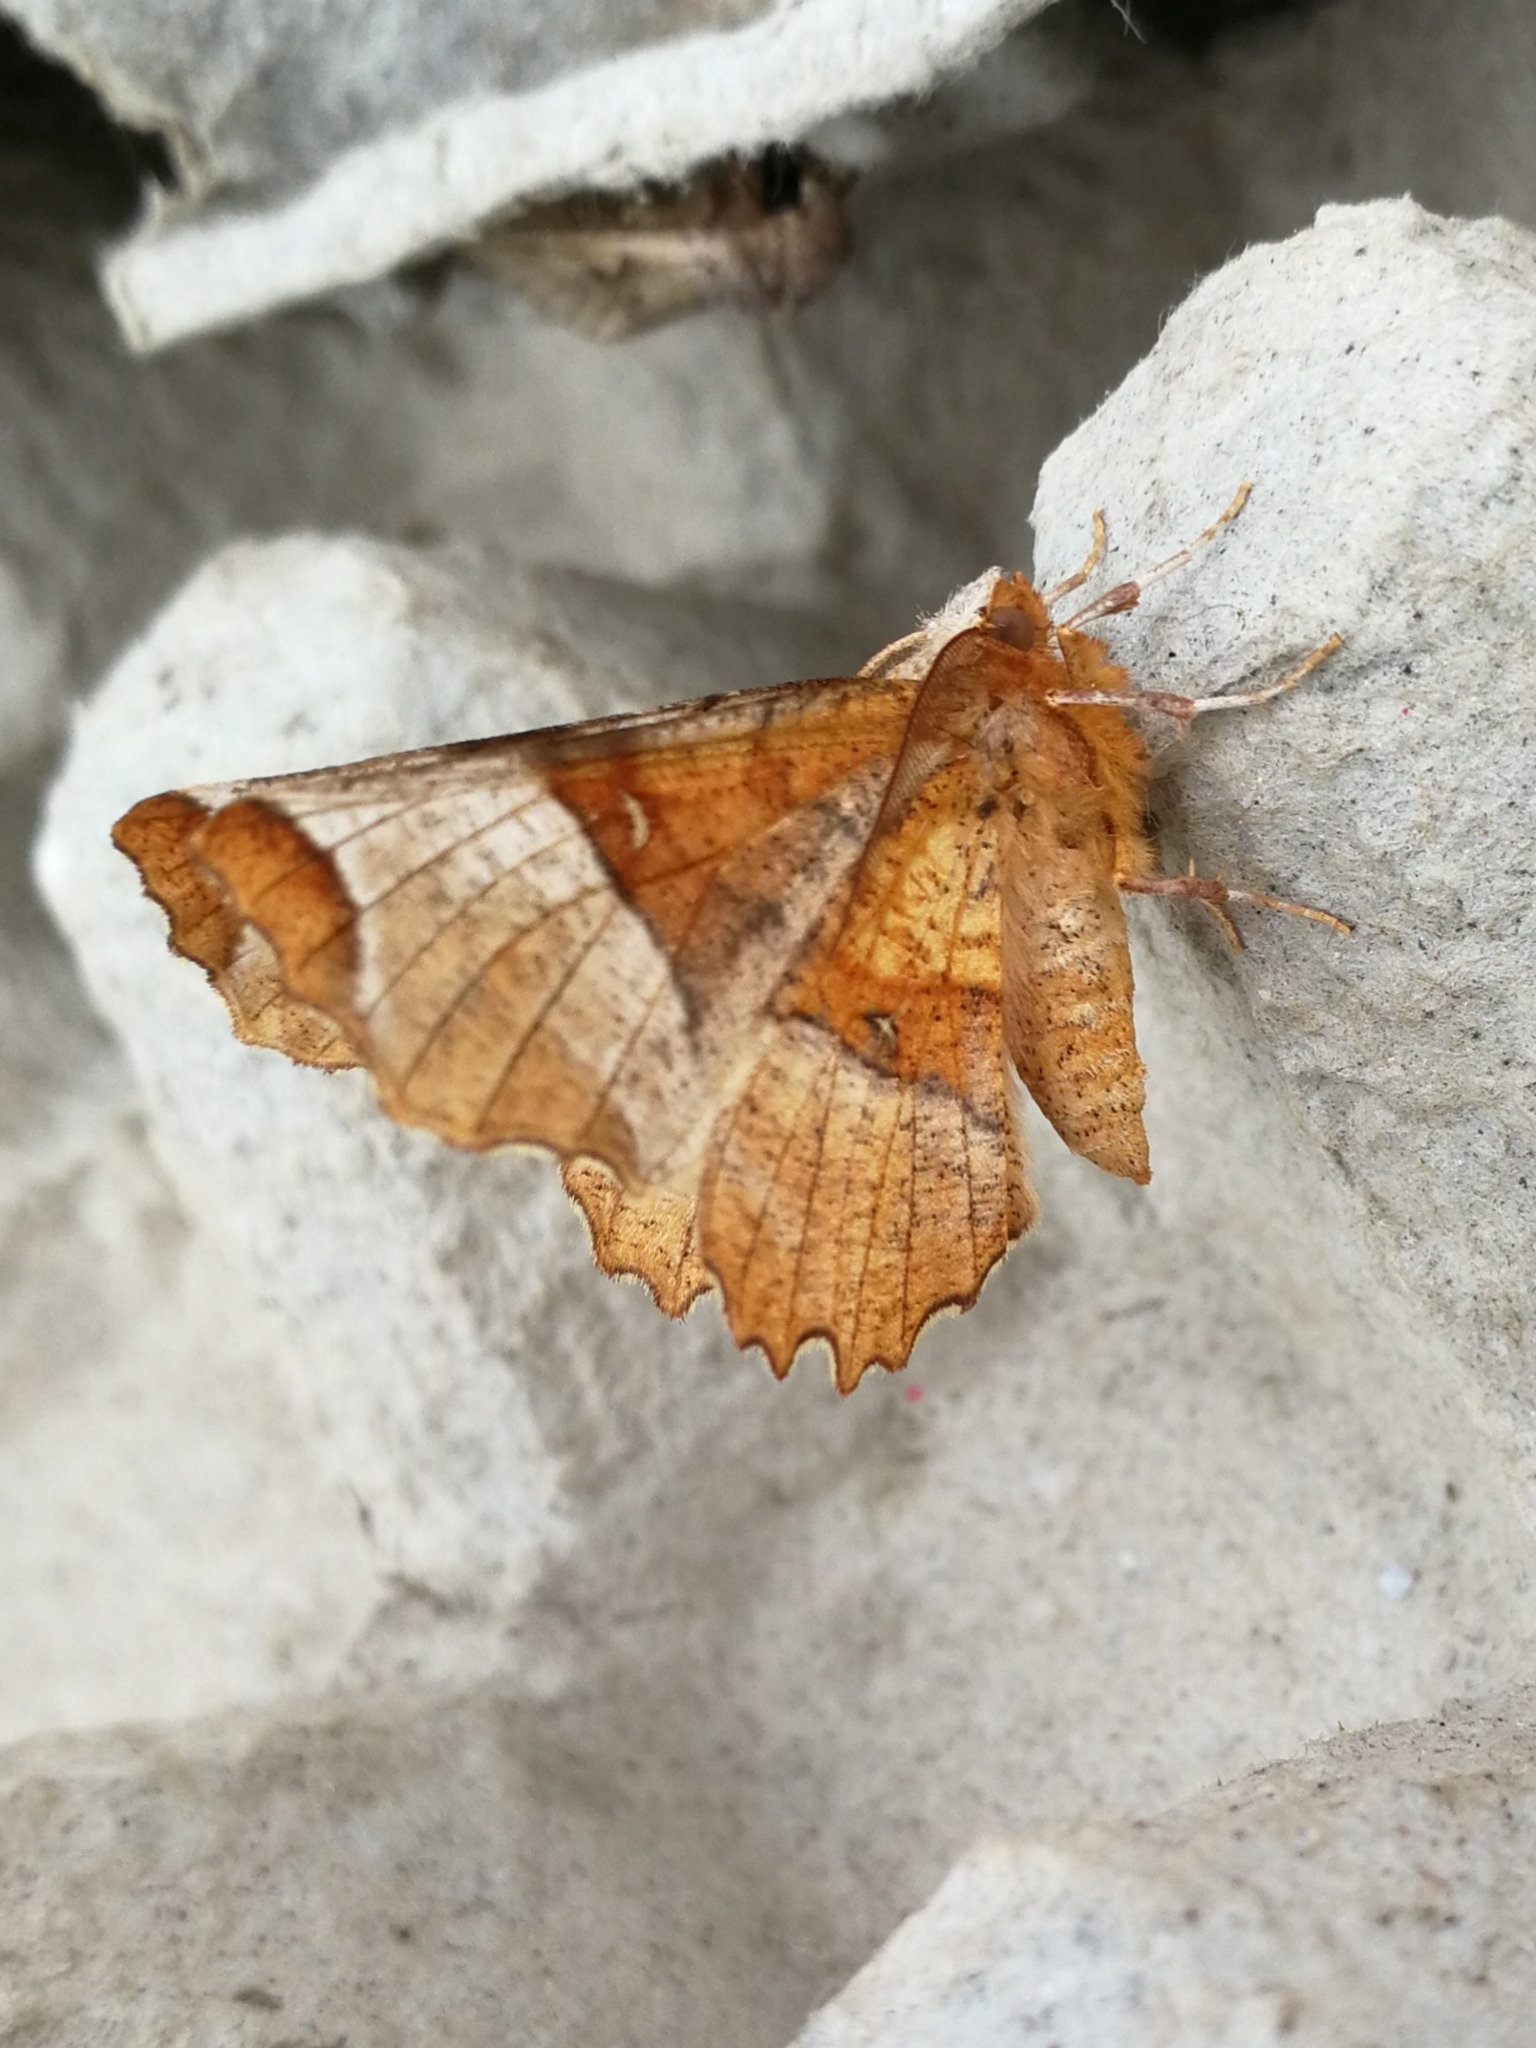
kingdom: Animalia
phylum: Arthropoda
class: Insecta
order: Lepidoptera
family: Geometridae
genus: Selenia
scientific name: Selenia lunularia
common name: Lunar thorn
